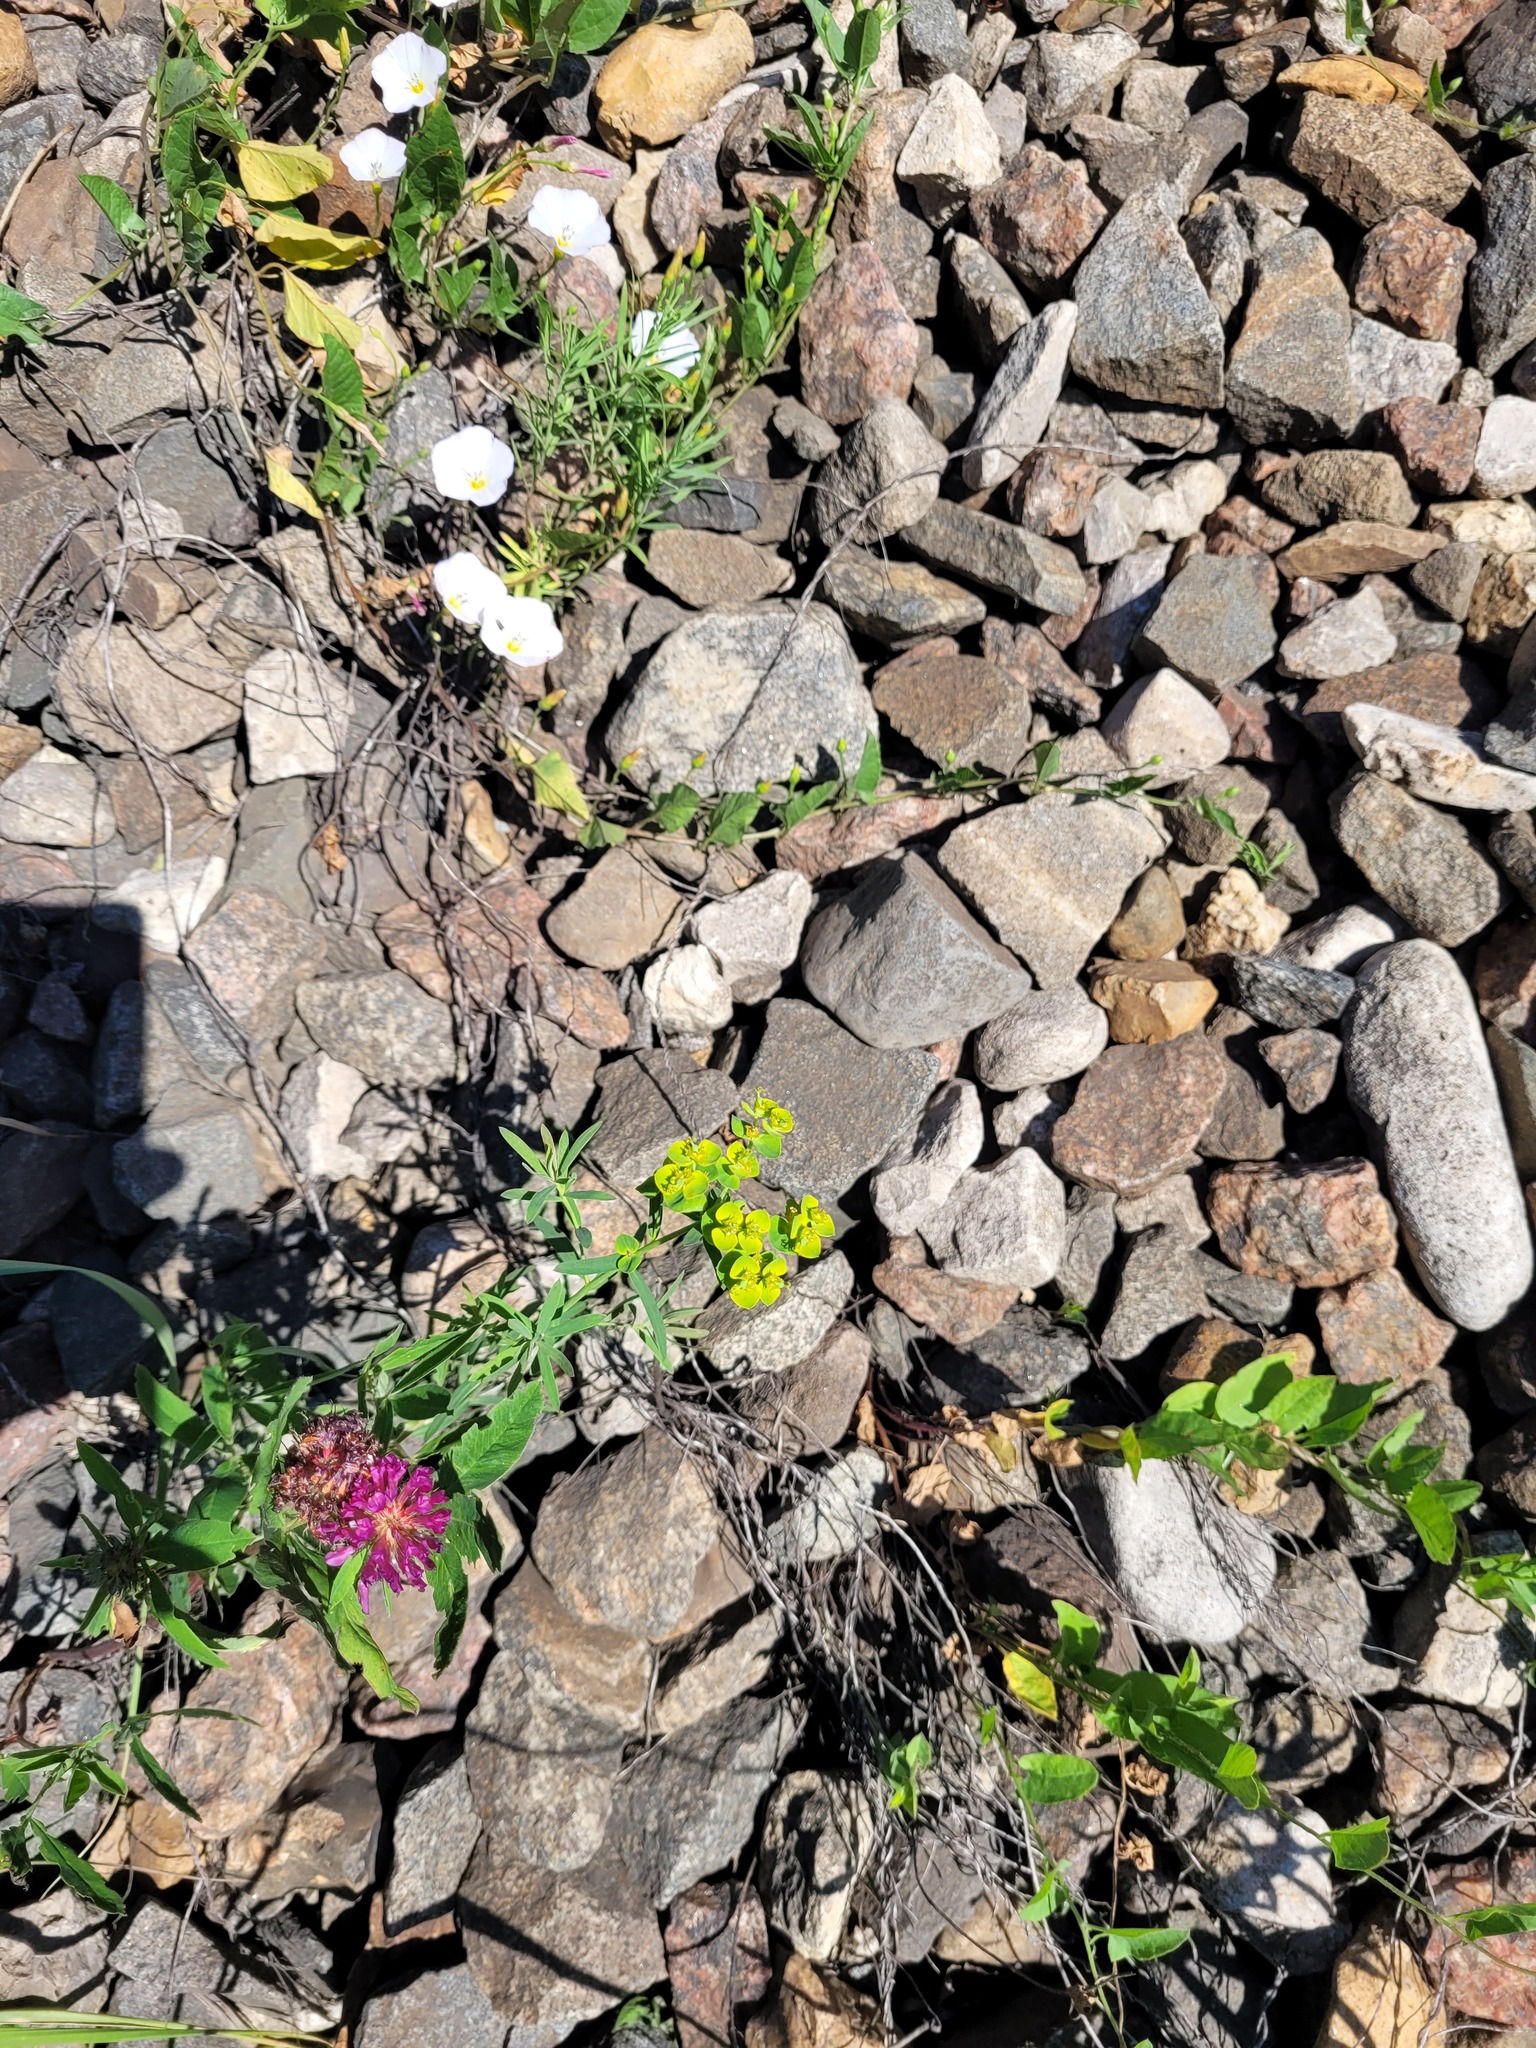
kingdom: Plantae
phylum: Tracheophyta
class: Magnoliopsida
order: Malpighiales
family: Euphorbiaceae
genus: Euphorbia
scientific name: Euphorbia virgata
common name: Leafy spurge
